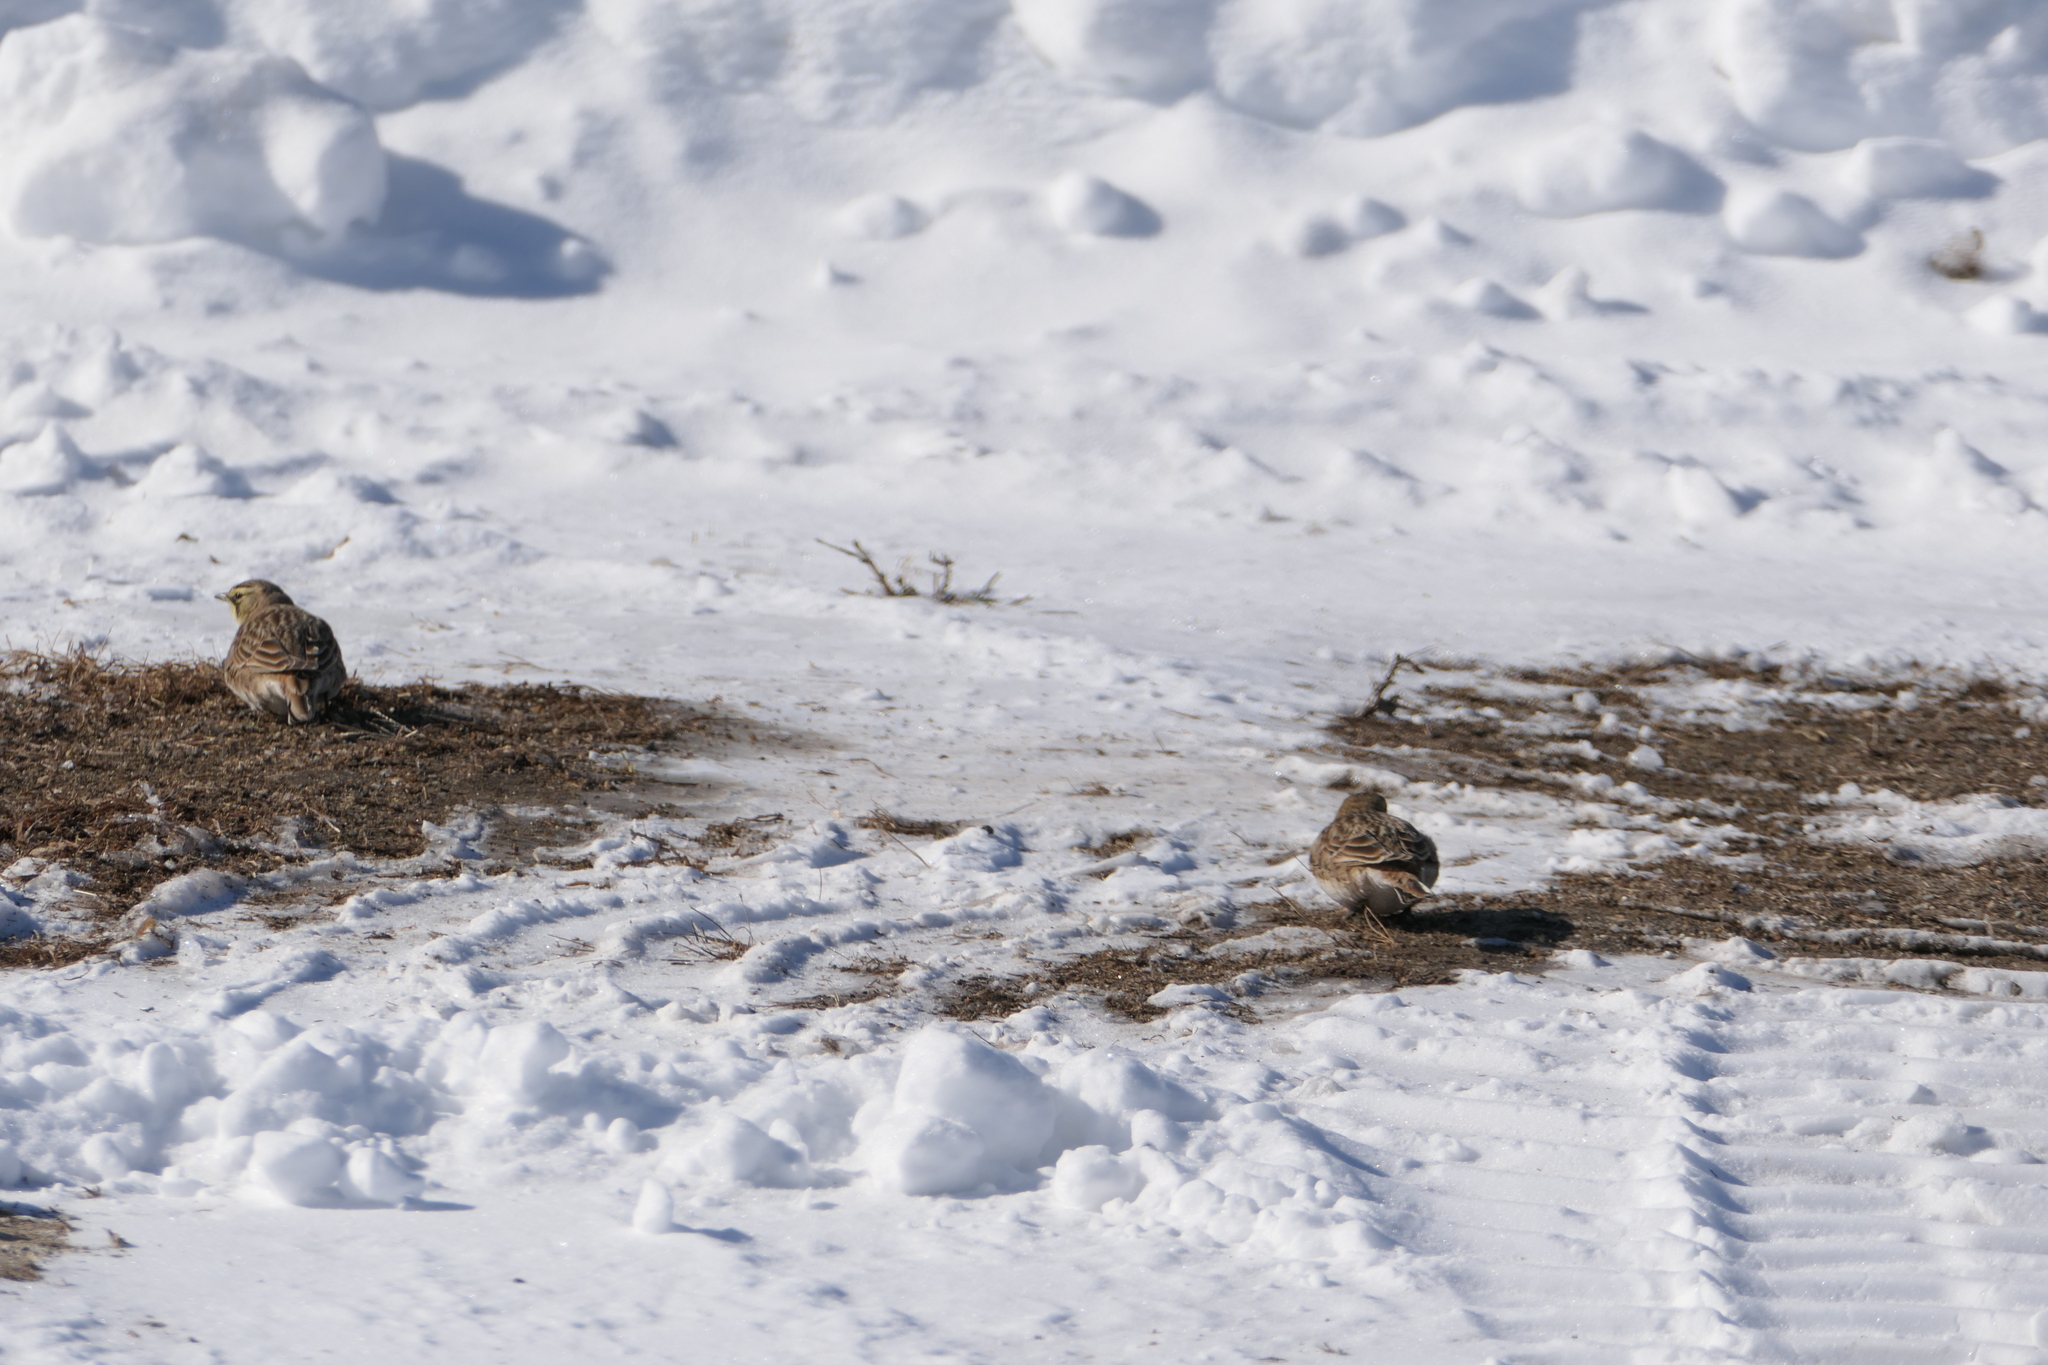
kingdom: Animalia
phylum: Chordata
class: Aves
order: Passeriformes
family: Alaudidae
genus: Eremophila
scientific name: Eremophila alpestris
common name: Horned lark
